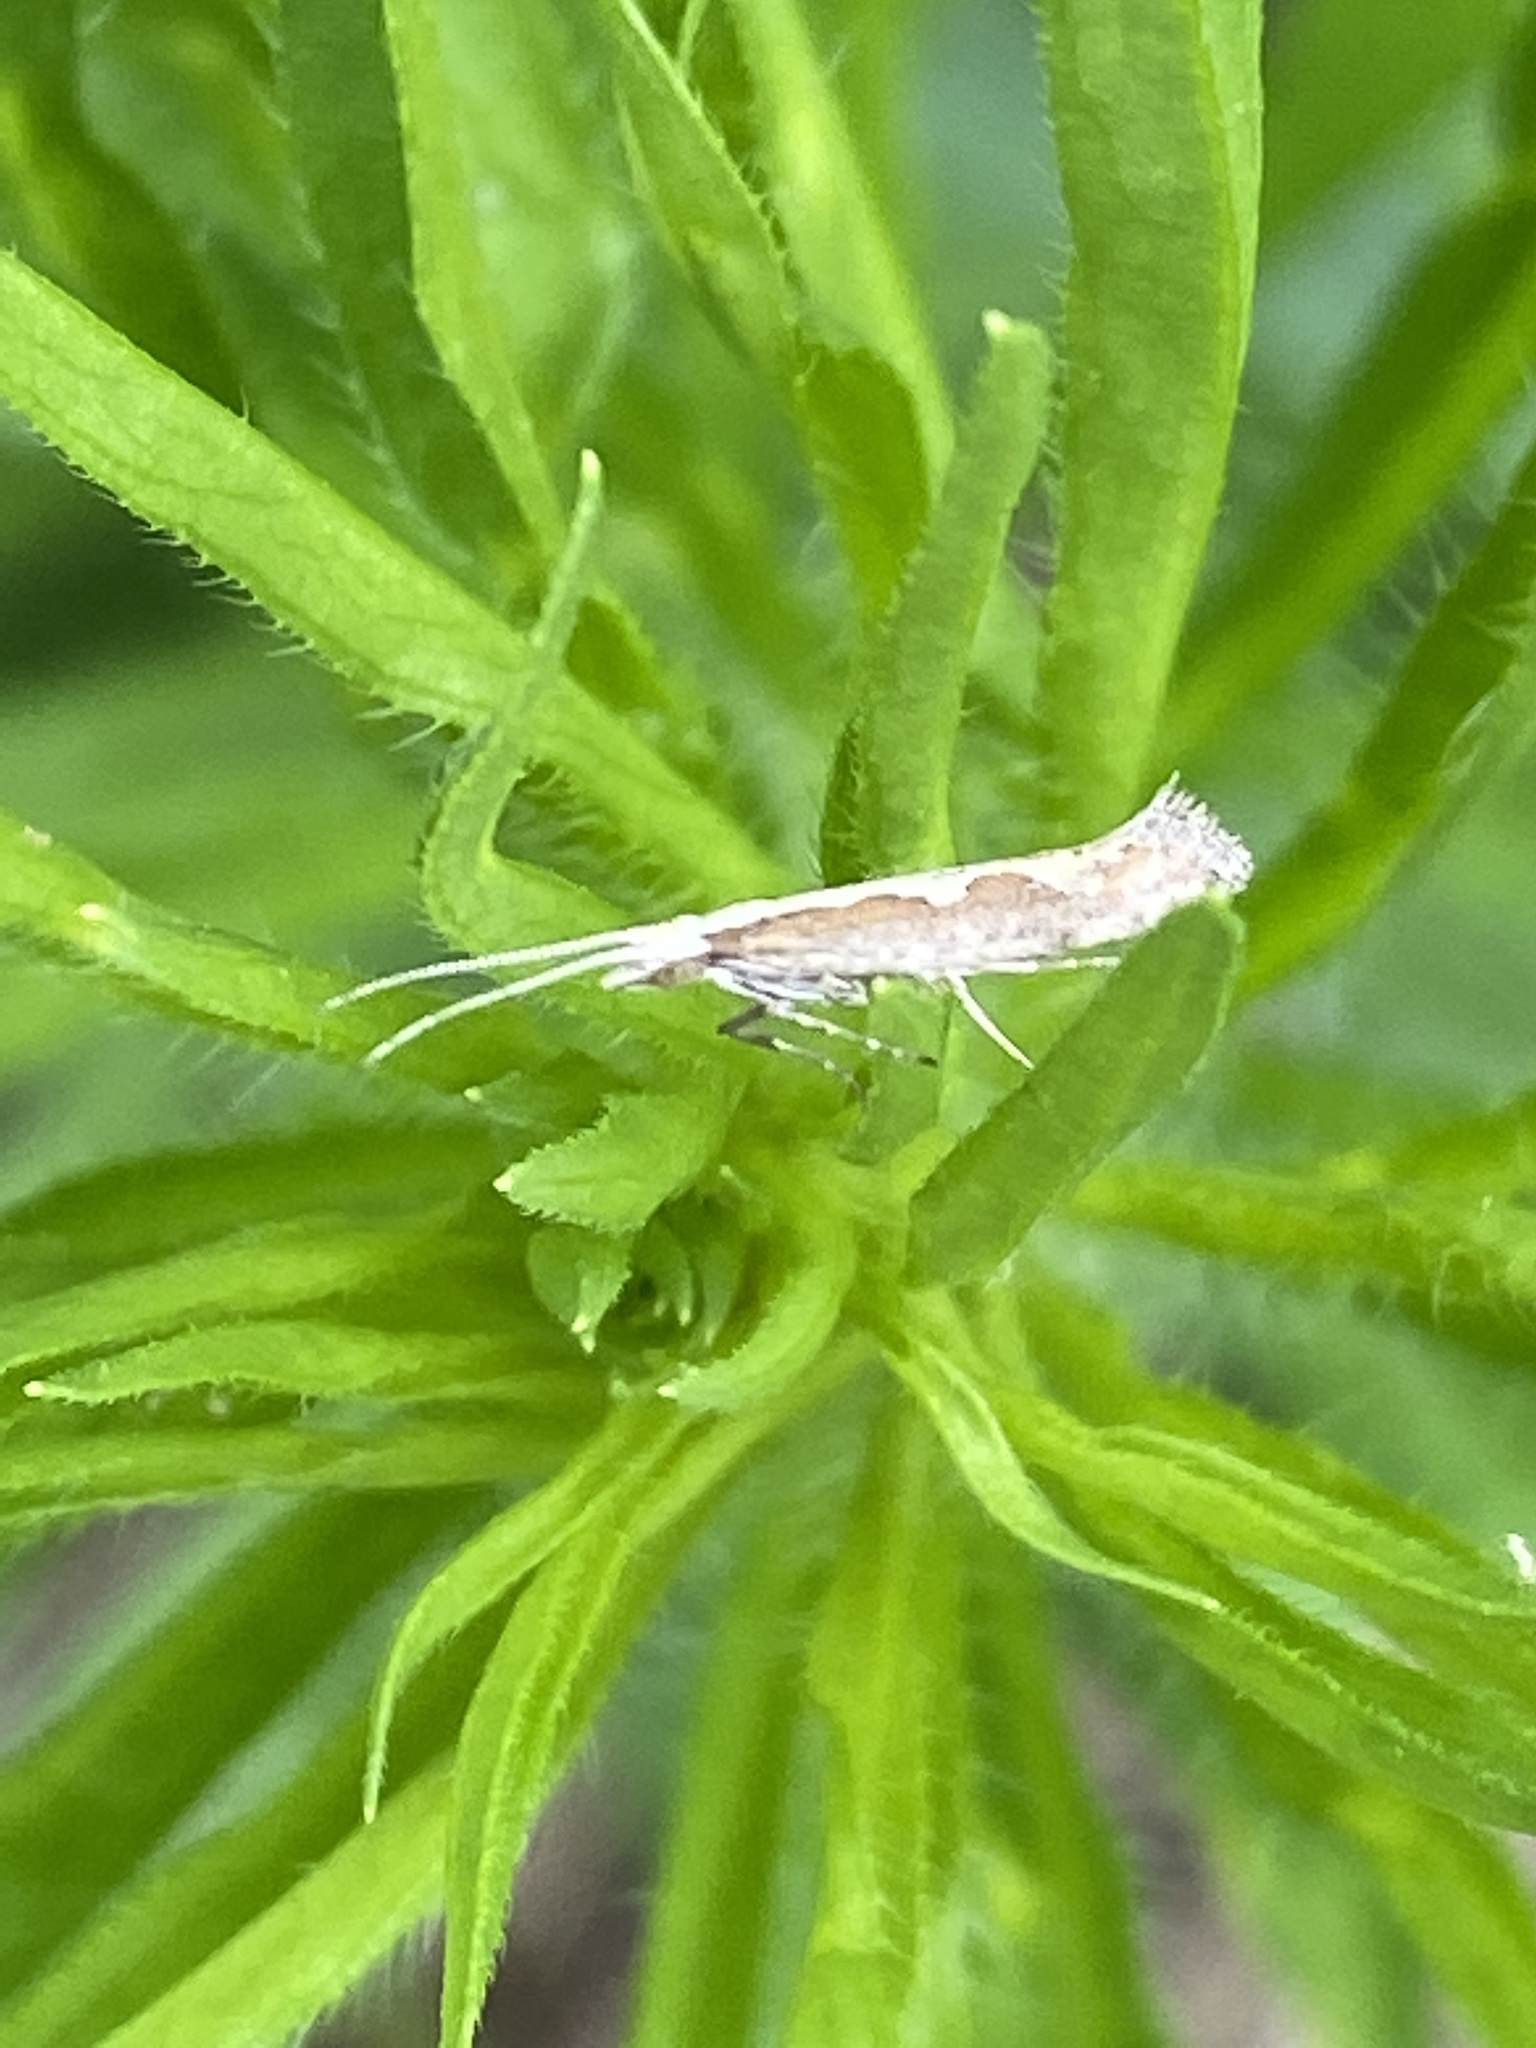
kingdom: Animalia
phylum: Arthropoda
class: Insecta
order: Lepidoptera
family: Plutellidae
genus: Plutella
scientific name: Plutella xylostella
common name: Diamond-back moth
